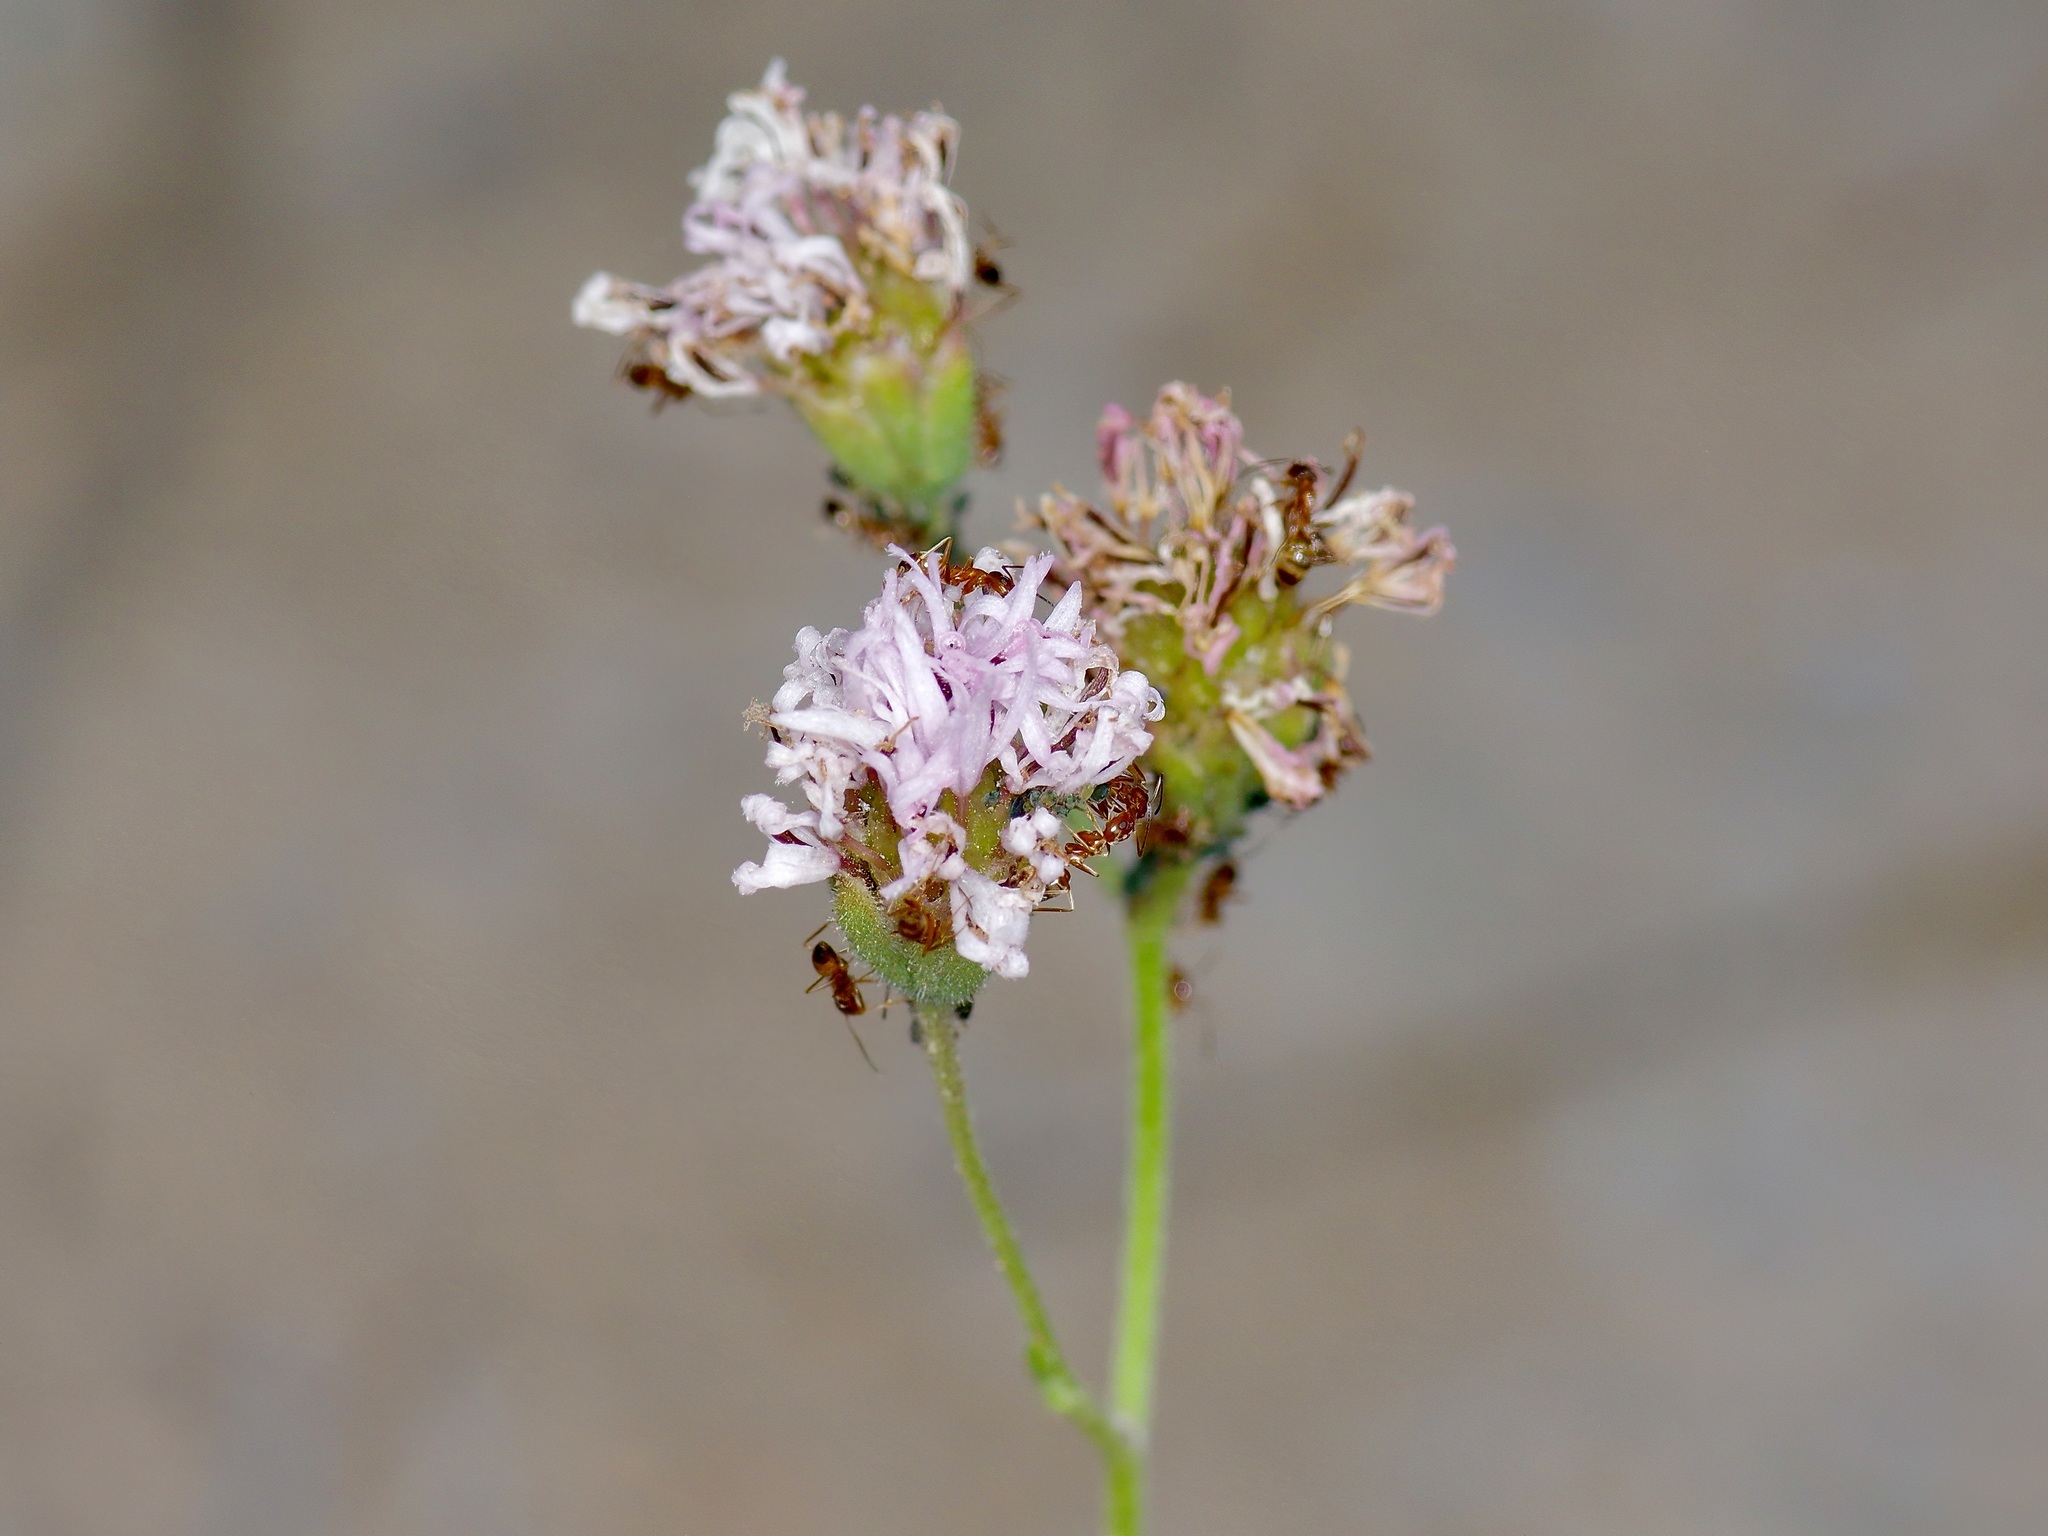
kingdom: Animalia
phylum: Arthropoda
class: Insecta
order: Hymenoptera
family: Formicidae
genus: Dorymyrmex
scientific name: Dorymyrmex flavus
